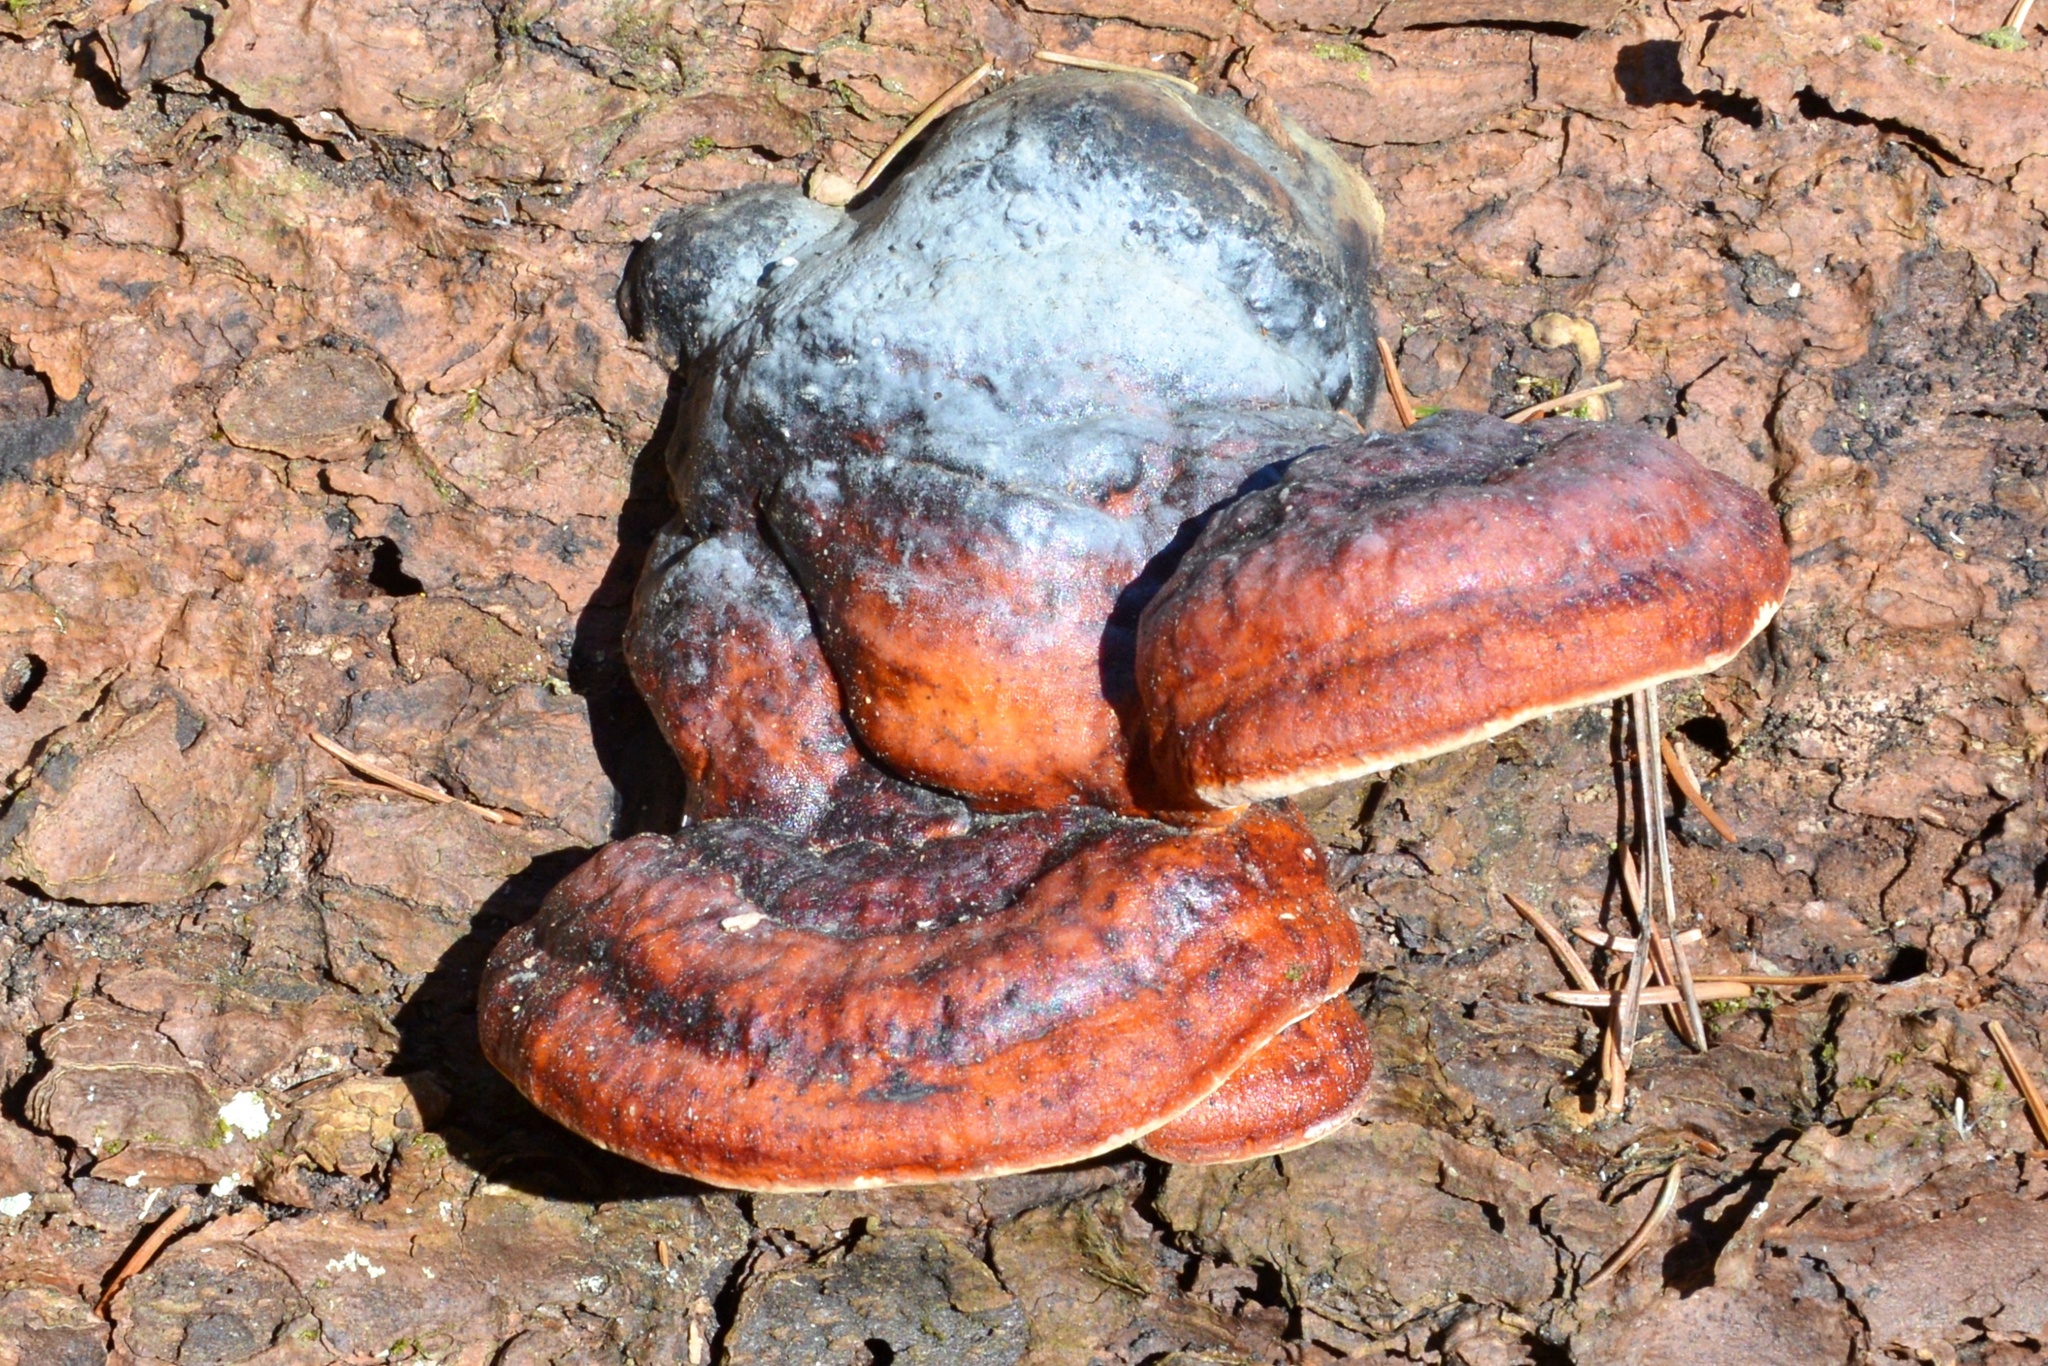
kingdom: Fungi
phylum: Basidiomycota
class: Agaricomycetes
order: Polyporales
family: Fomitopsidaceae
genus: Fomitopsis
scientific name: Fomitopsis pinicola
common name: Red-belted bracket
